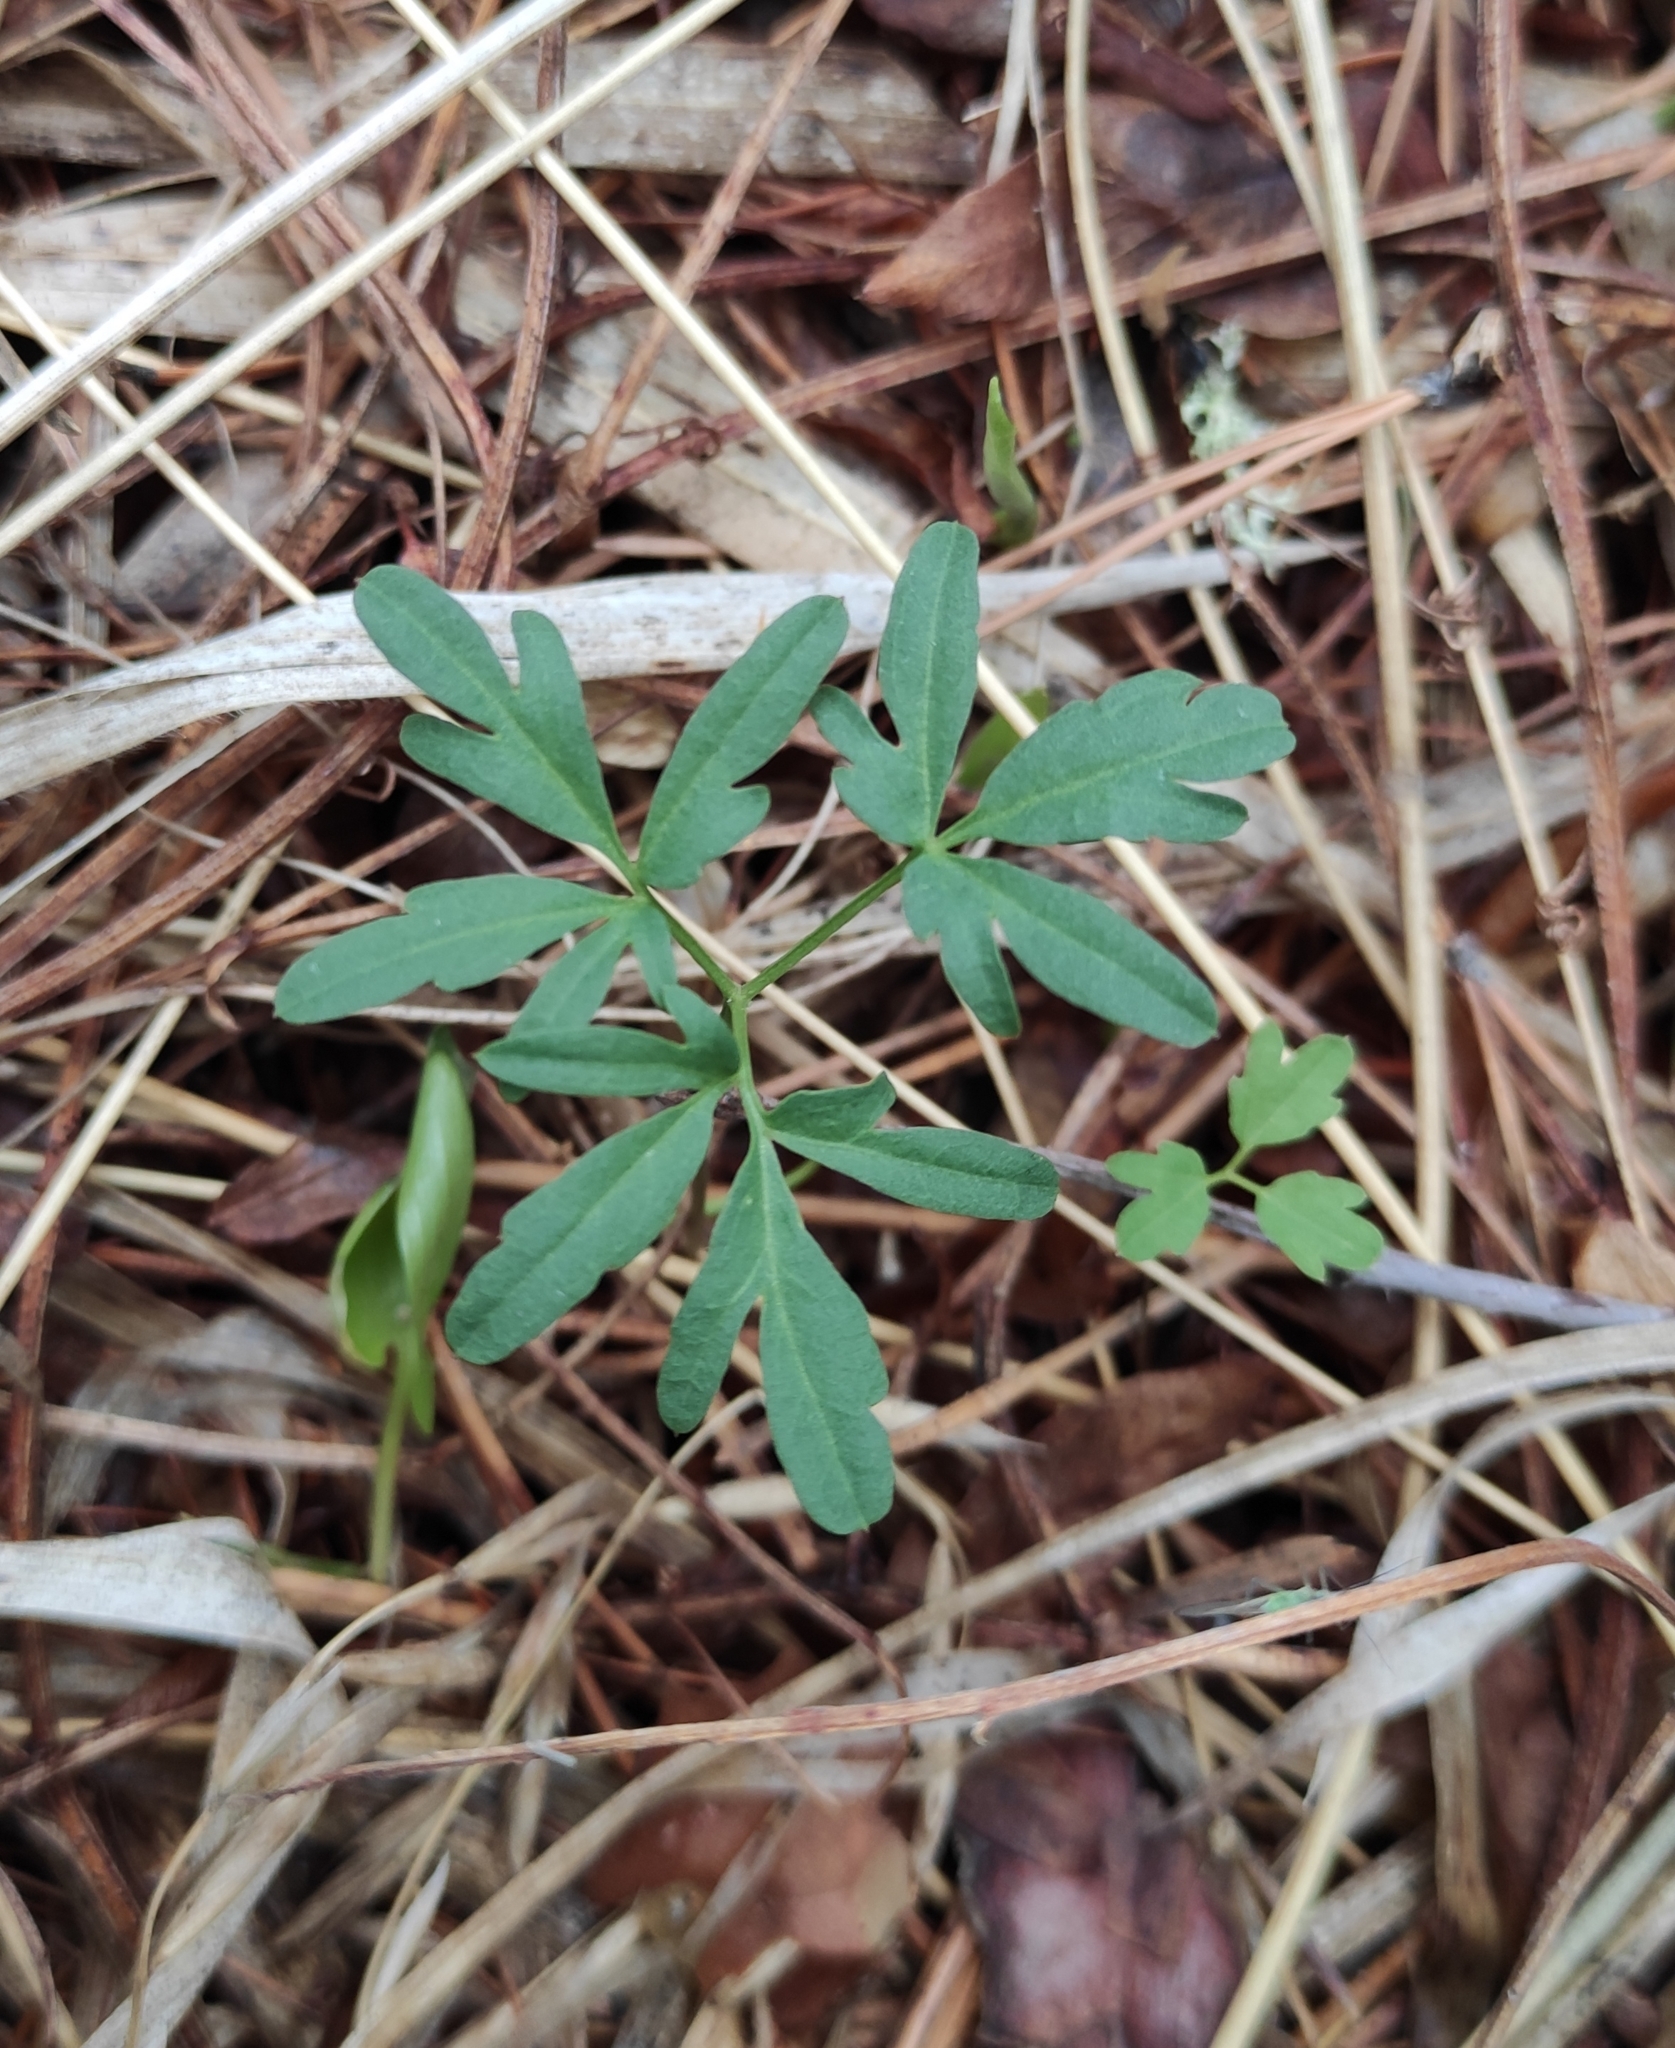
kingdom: Plantae
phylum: Tracheophyta
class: Magnoliopsida
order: Brassicales
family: Brassicaceae
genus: Cardamine
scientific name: Cardamine trifida
